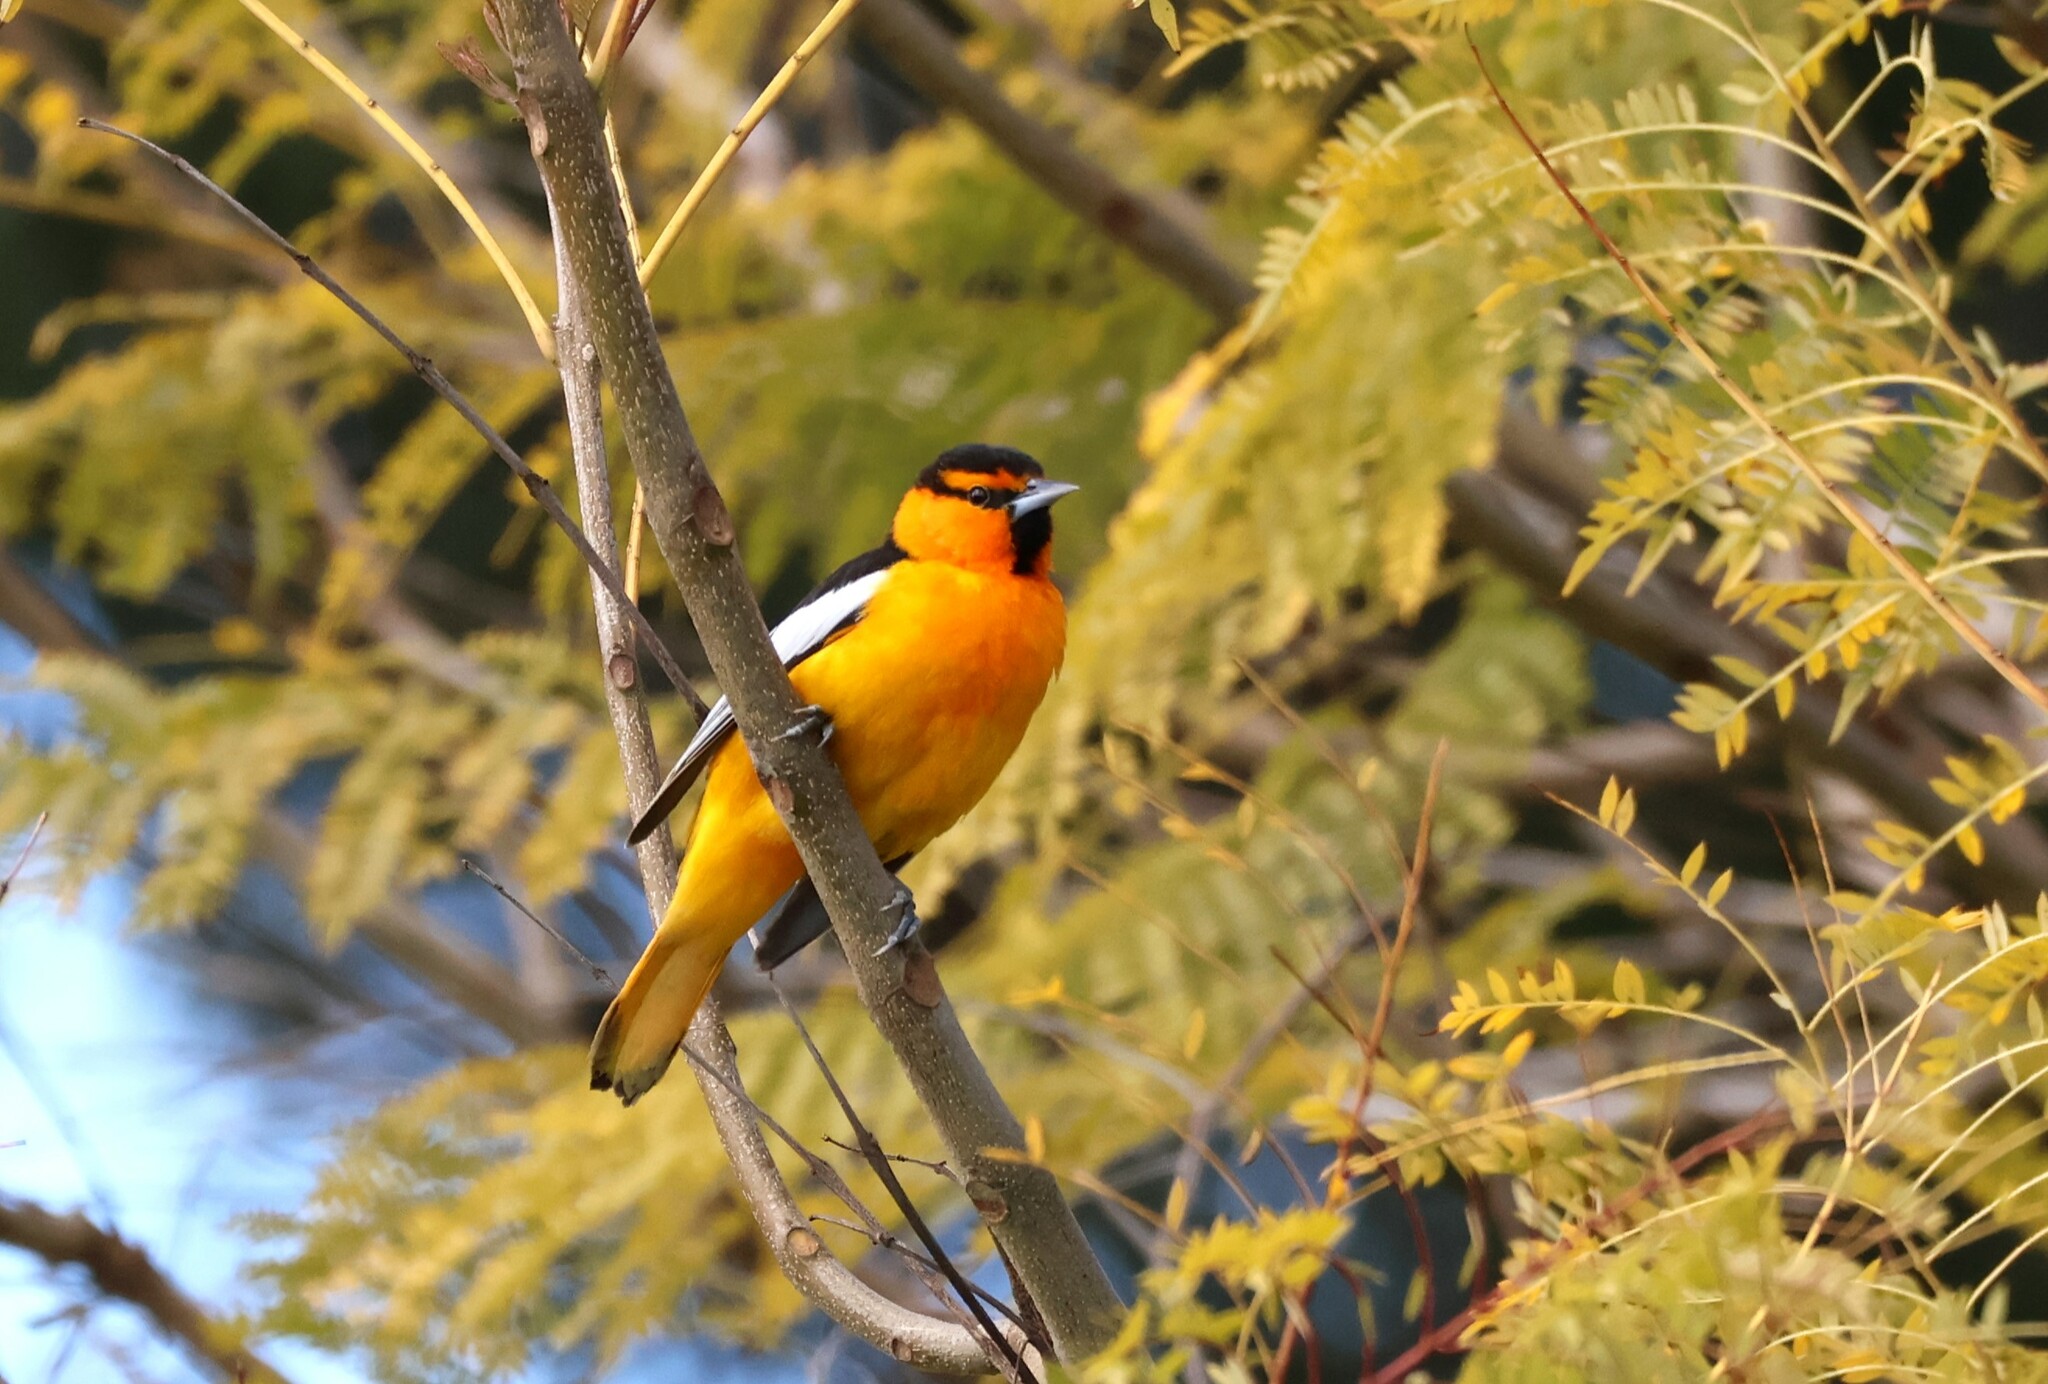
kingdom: Animalia
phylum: Chordata
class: Aves
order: Passeriformes
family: Icteridae
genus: Icterus
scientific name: Icterus bullockii
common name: Bullock's oriole
